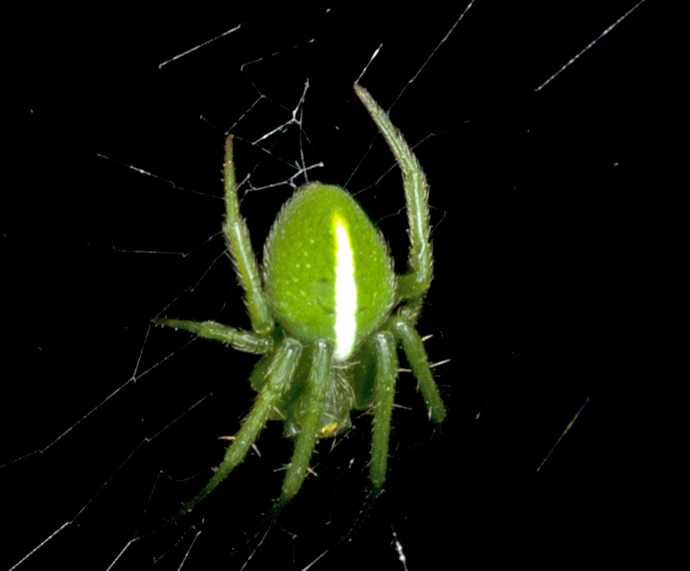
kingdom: Animalia
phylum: Arthropoda
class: Arachnida
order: Araneae
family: Araneidae
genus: Araneus
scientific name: Araneus psittacinus
